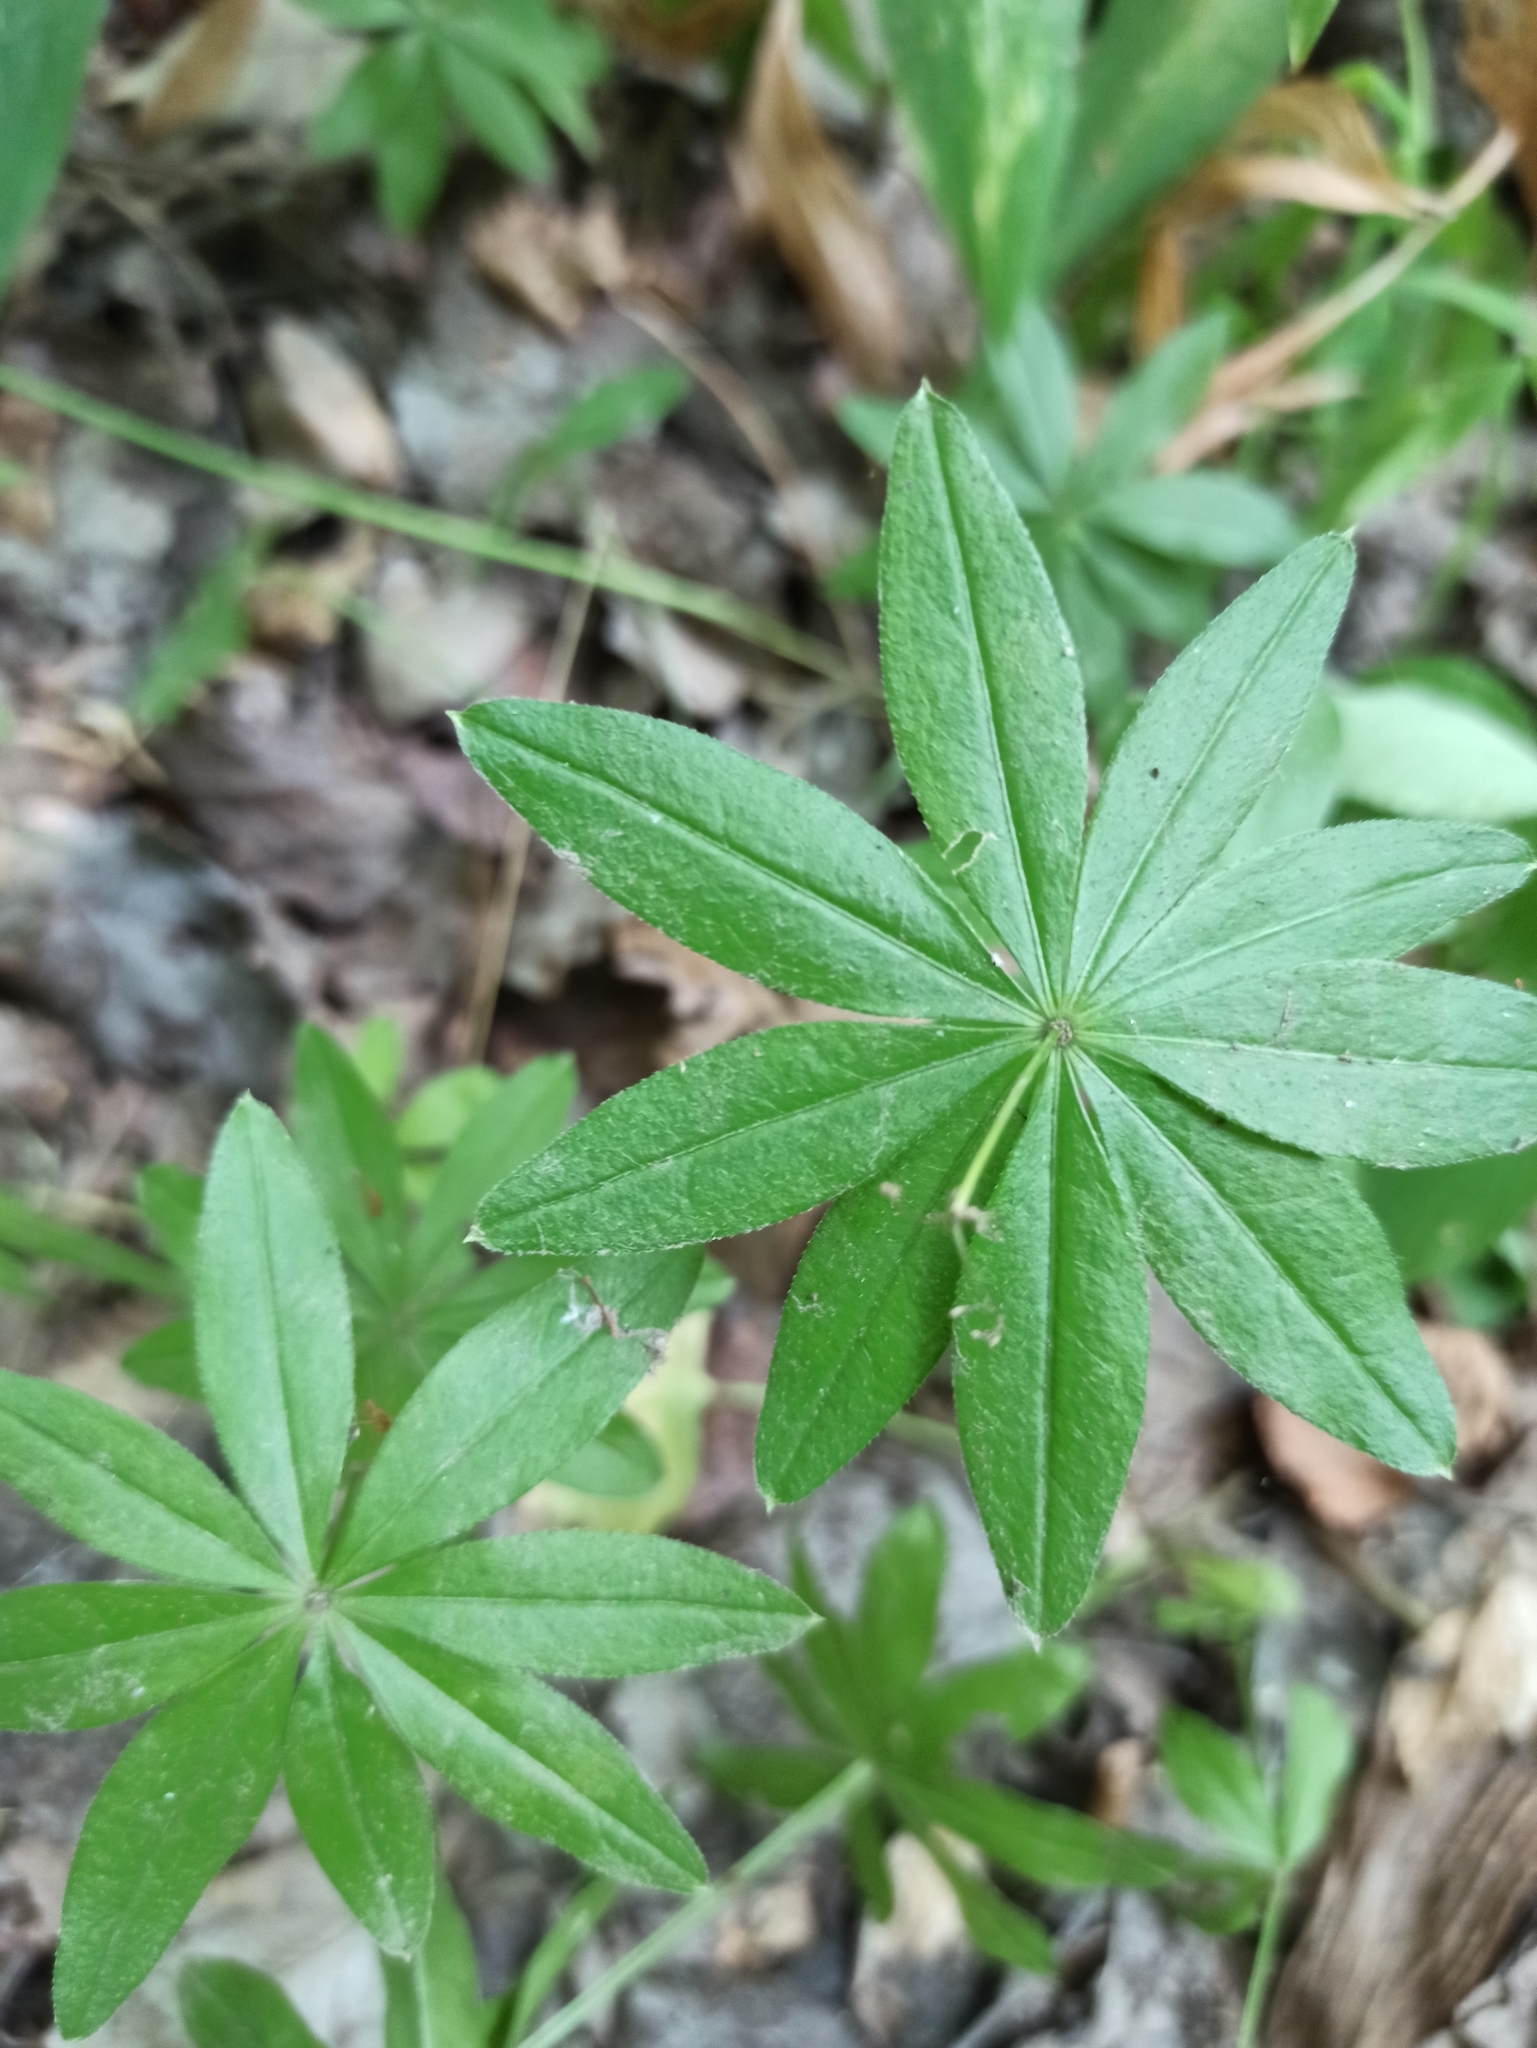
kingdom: Plantae
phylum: Tracheophyta
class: Magnoliopsida
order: Gentianales
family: Rubiaceae
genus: Galium
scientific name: Galium odoratum
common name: Sweet woodruff
